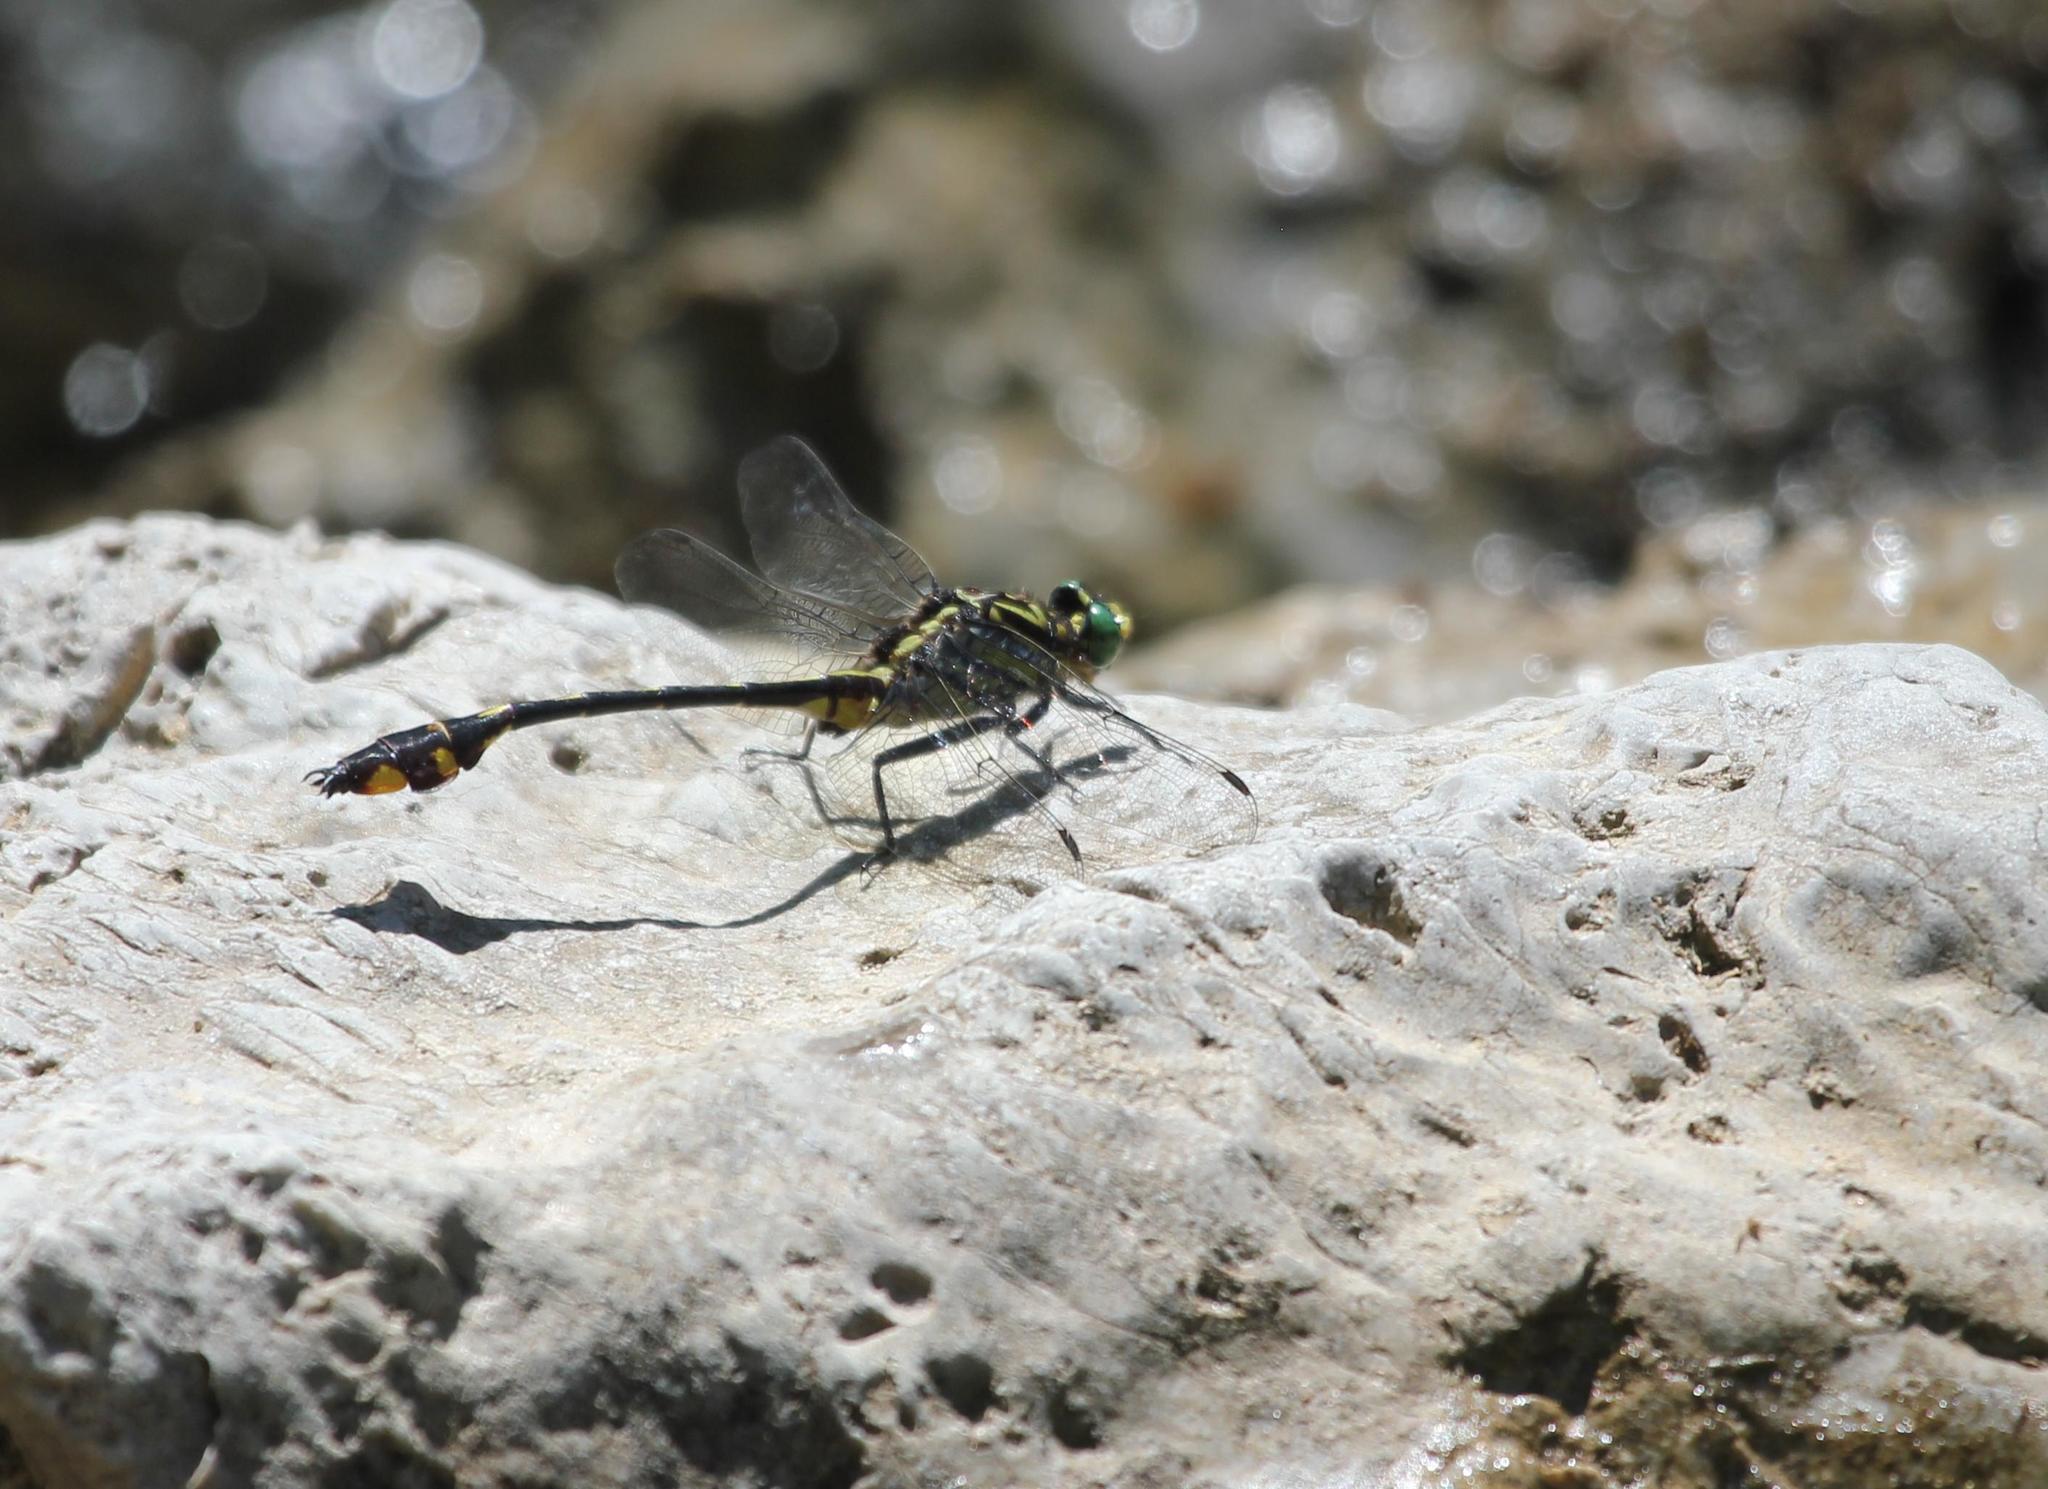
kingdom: Animalia
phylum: Arthropoda
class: Insecta
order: Odonata
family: Gomphidae
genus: Gomphurus
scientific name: Gomphurus modestus
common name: Gulf coast clubtail
